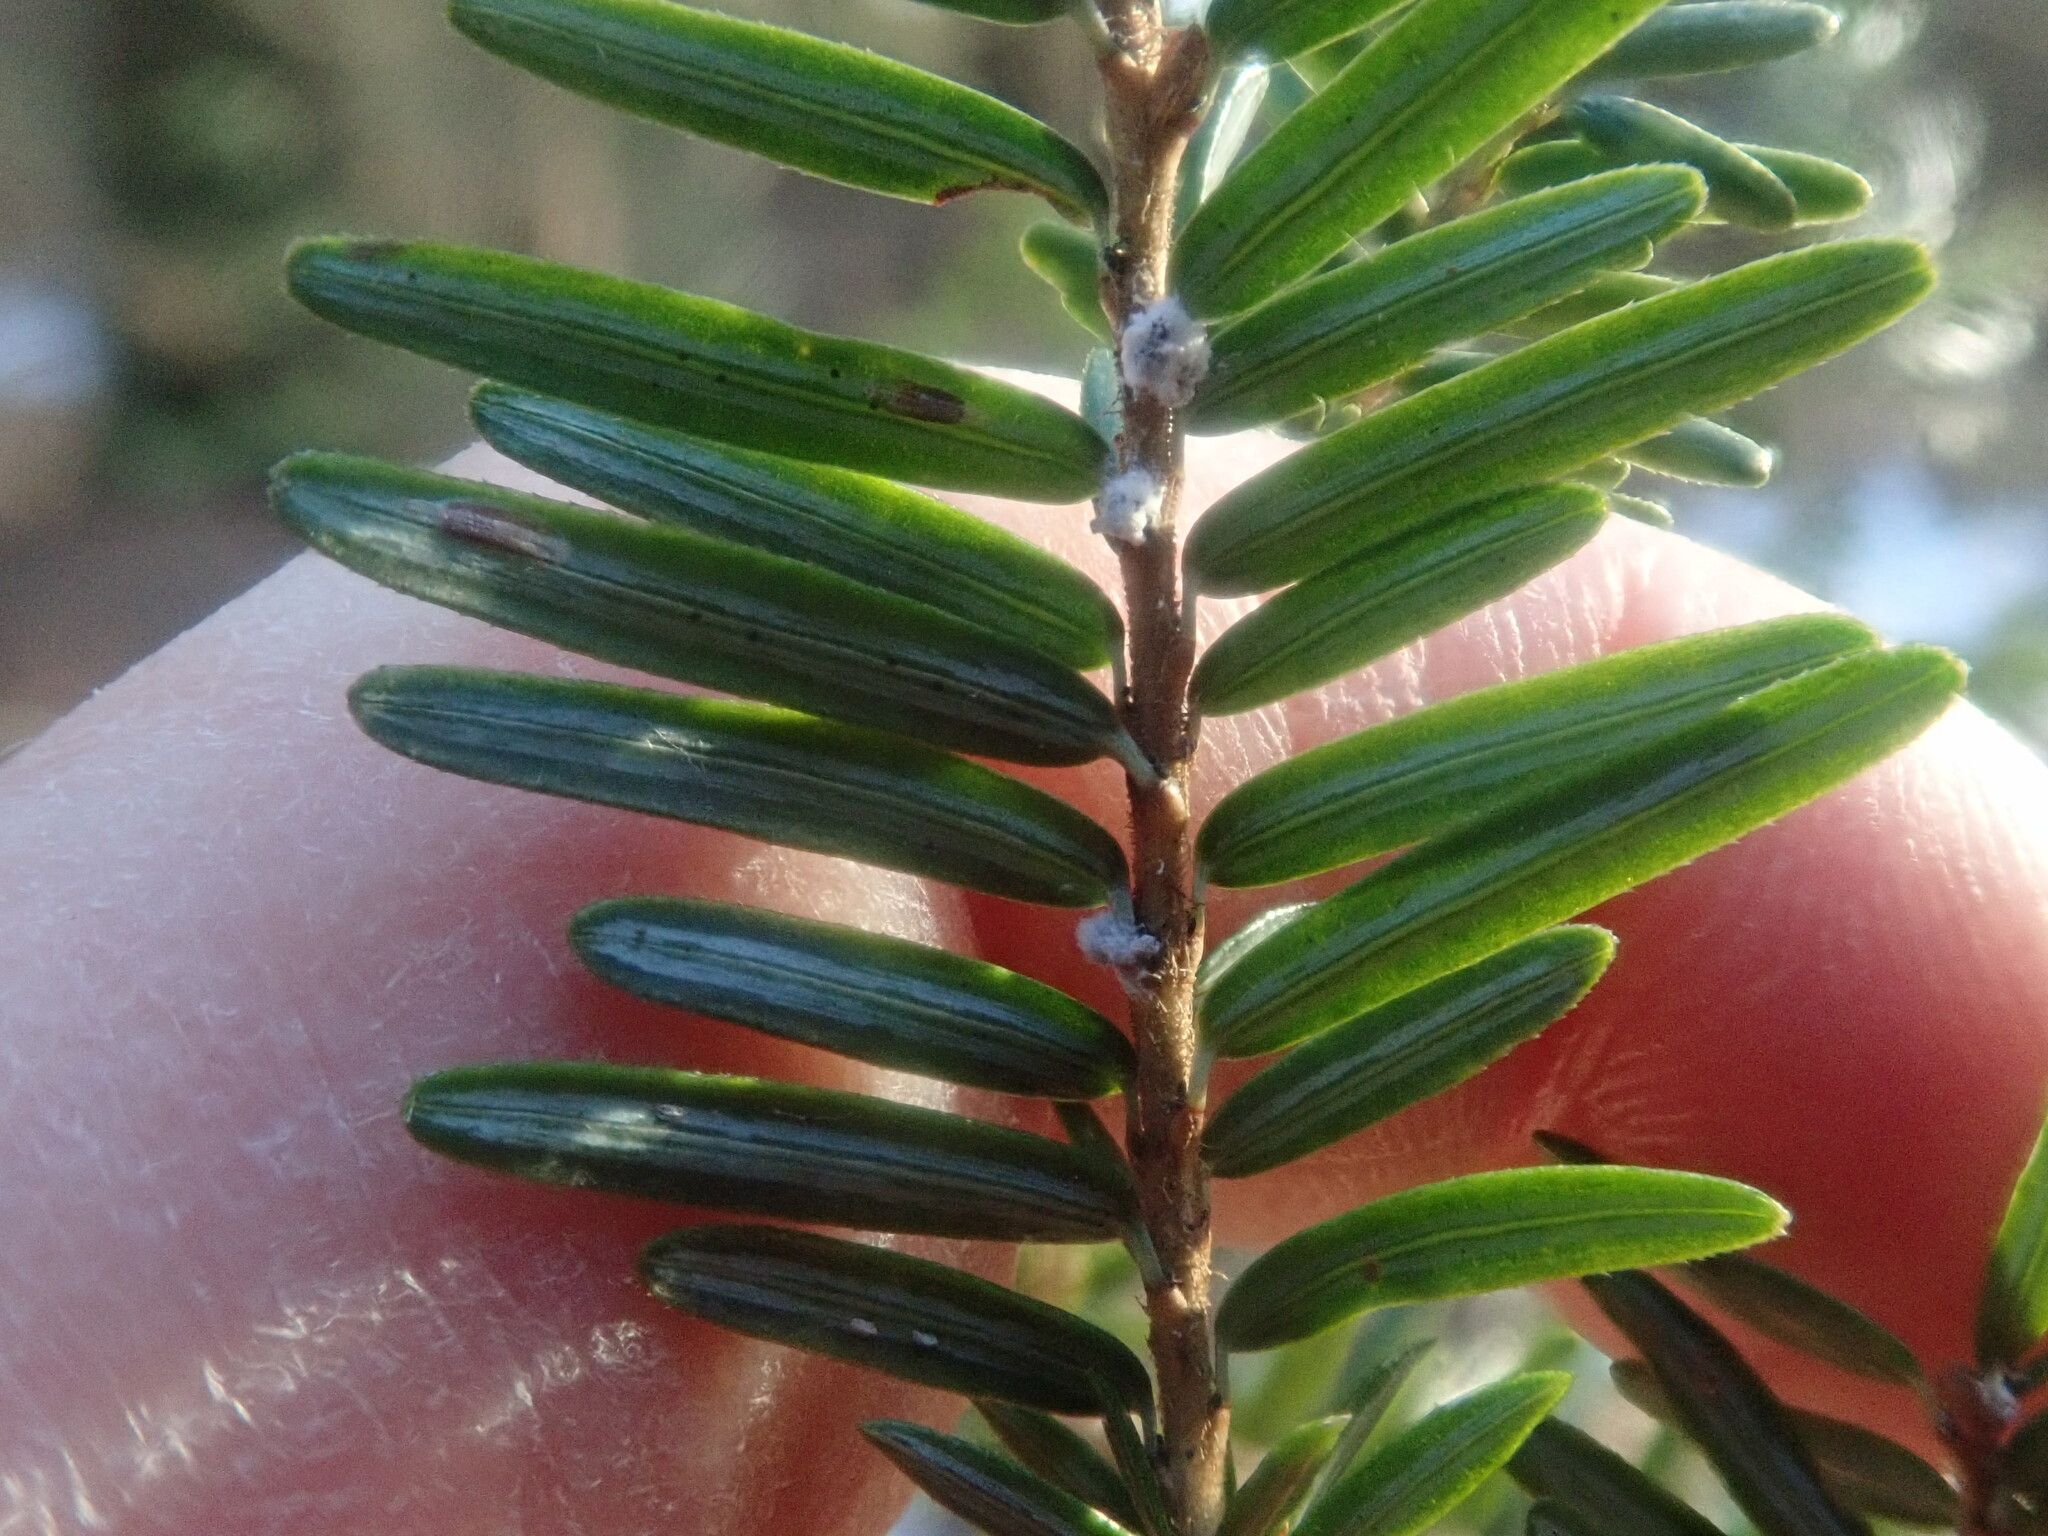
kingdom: Animalia
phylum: Arthropoda
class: Insecta
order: Hemiptera
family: Adelgidae
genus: Adelges
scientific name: Adelges tsugae
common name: Hemlock woolly adelgid
